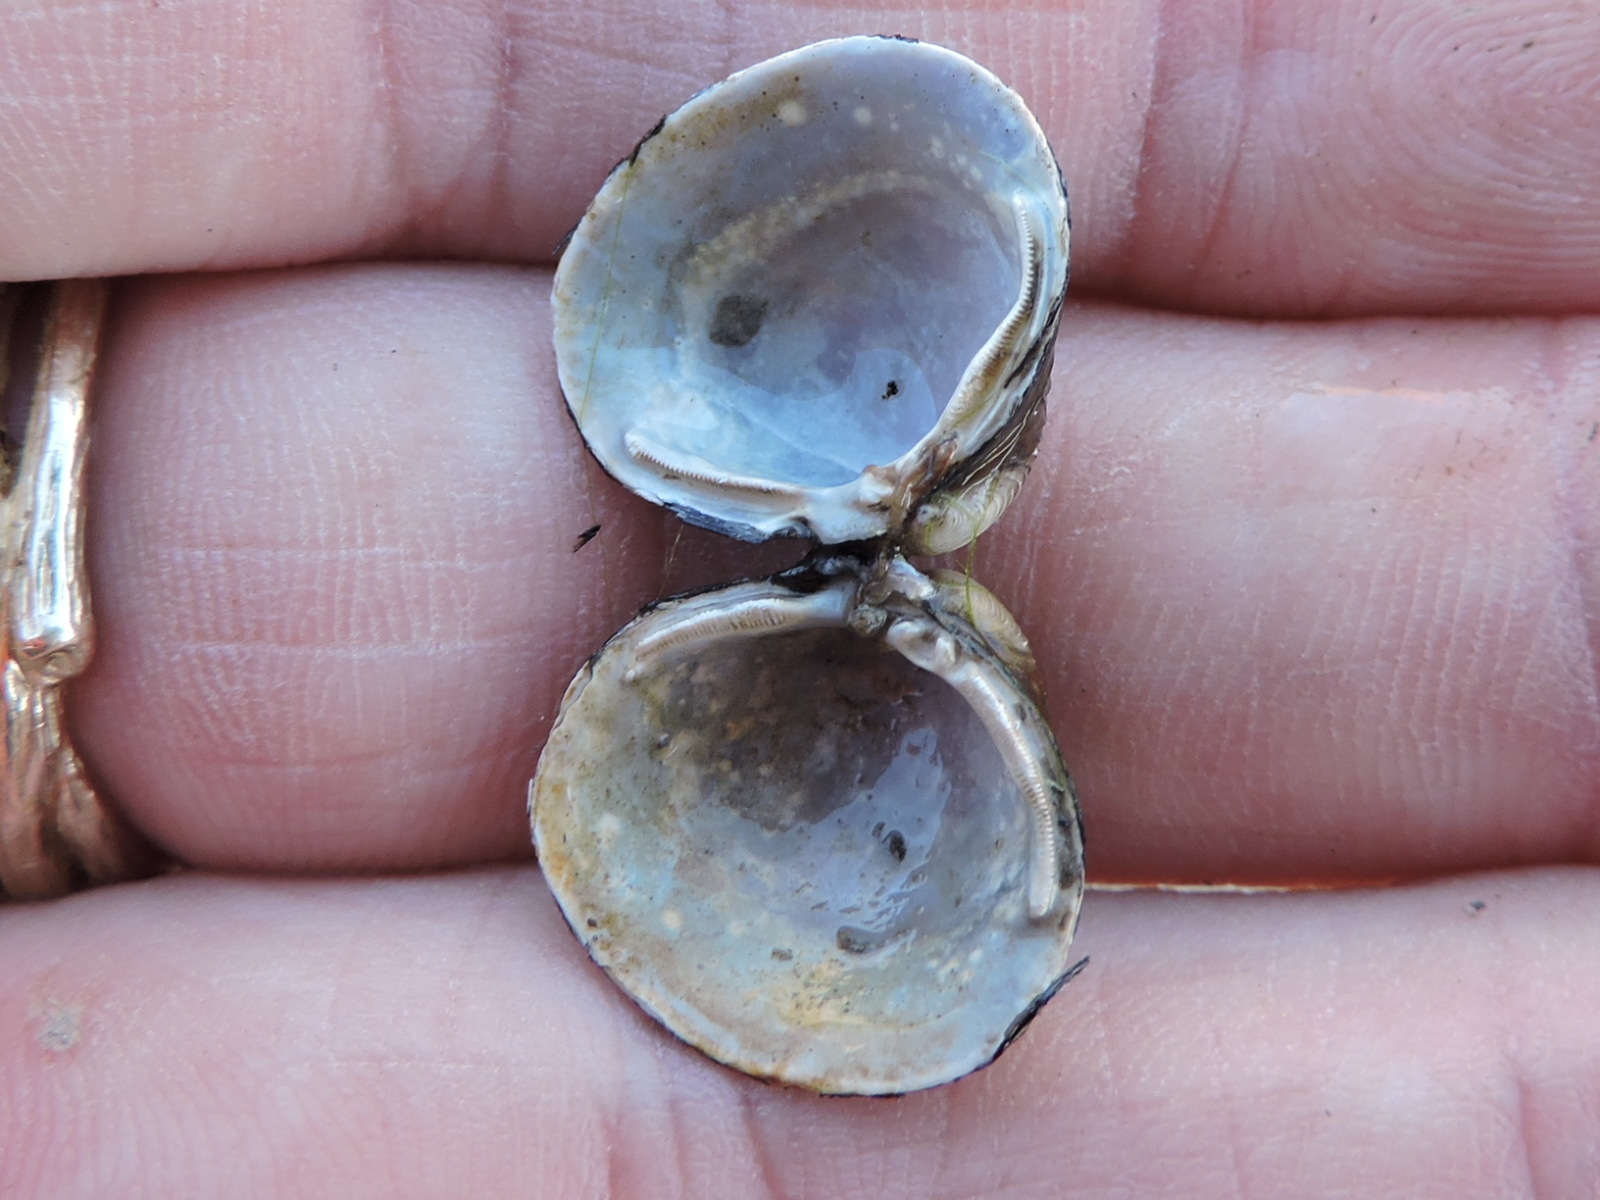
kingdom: Animalia
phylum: Mollusca
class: Bivalvia
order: Venerida
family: Cyrenidae
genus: Corbicula
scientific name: Corbicula fluminea
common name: Asian clam
